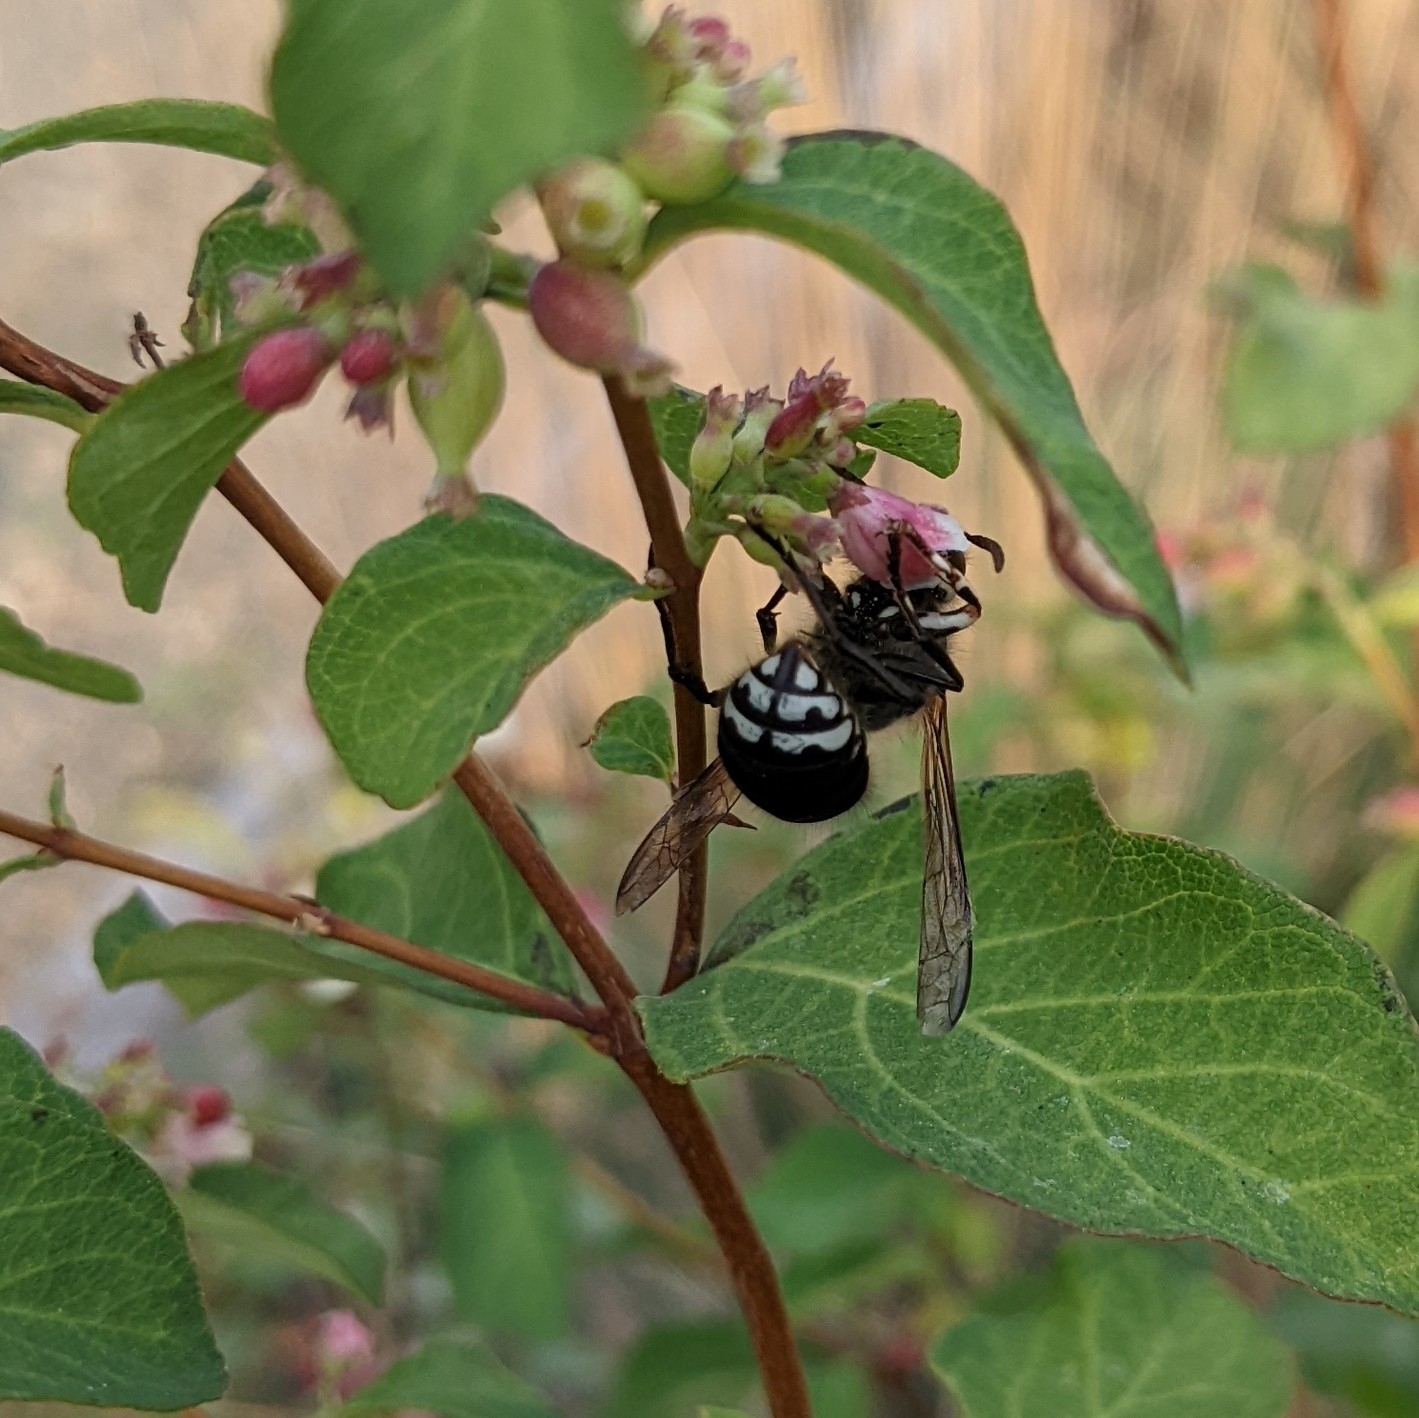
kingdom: Animalia
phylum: Arthropoda
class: Insecta
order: Hymenoptera
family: Vespidae
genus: Dolichovespula
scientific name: Dolichovespula maculata
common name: Bald-faced hornet
